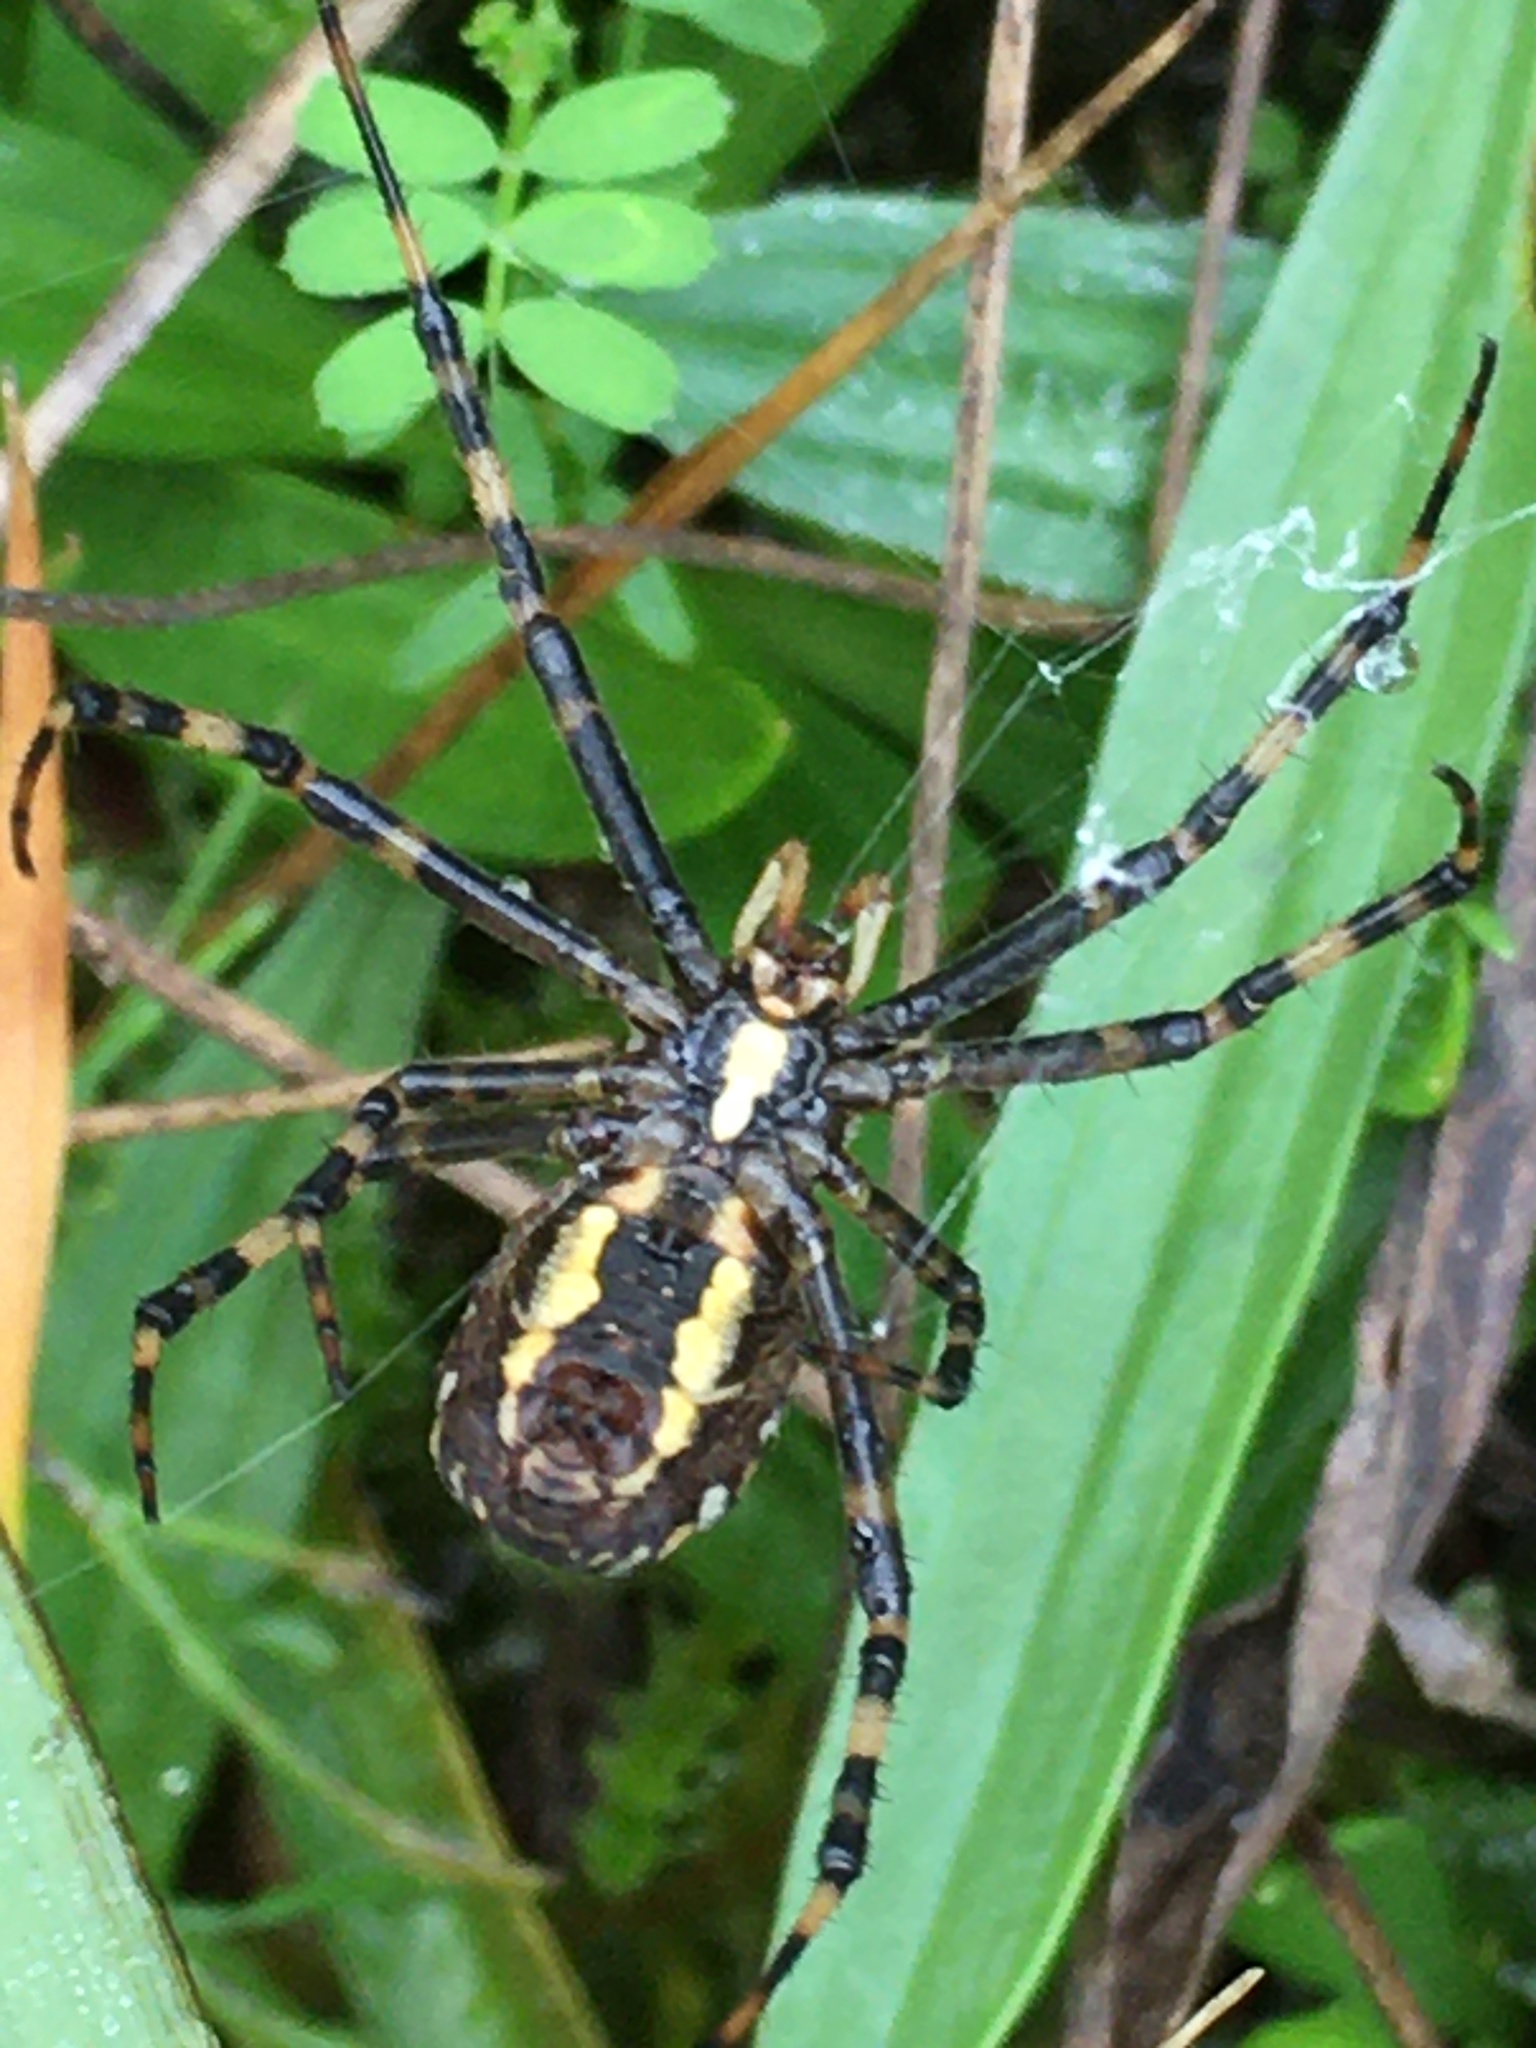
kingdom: Animalia
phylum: Arthropoda
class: Arachnida
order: Araneae
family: Araneidae
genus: Argiope
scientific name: Argiope bruennichi
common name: Wasp spider
